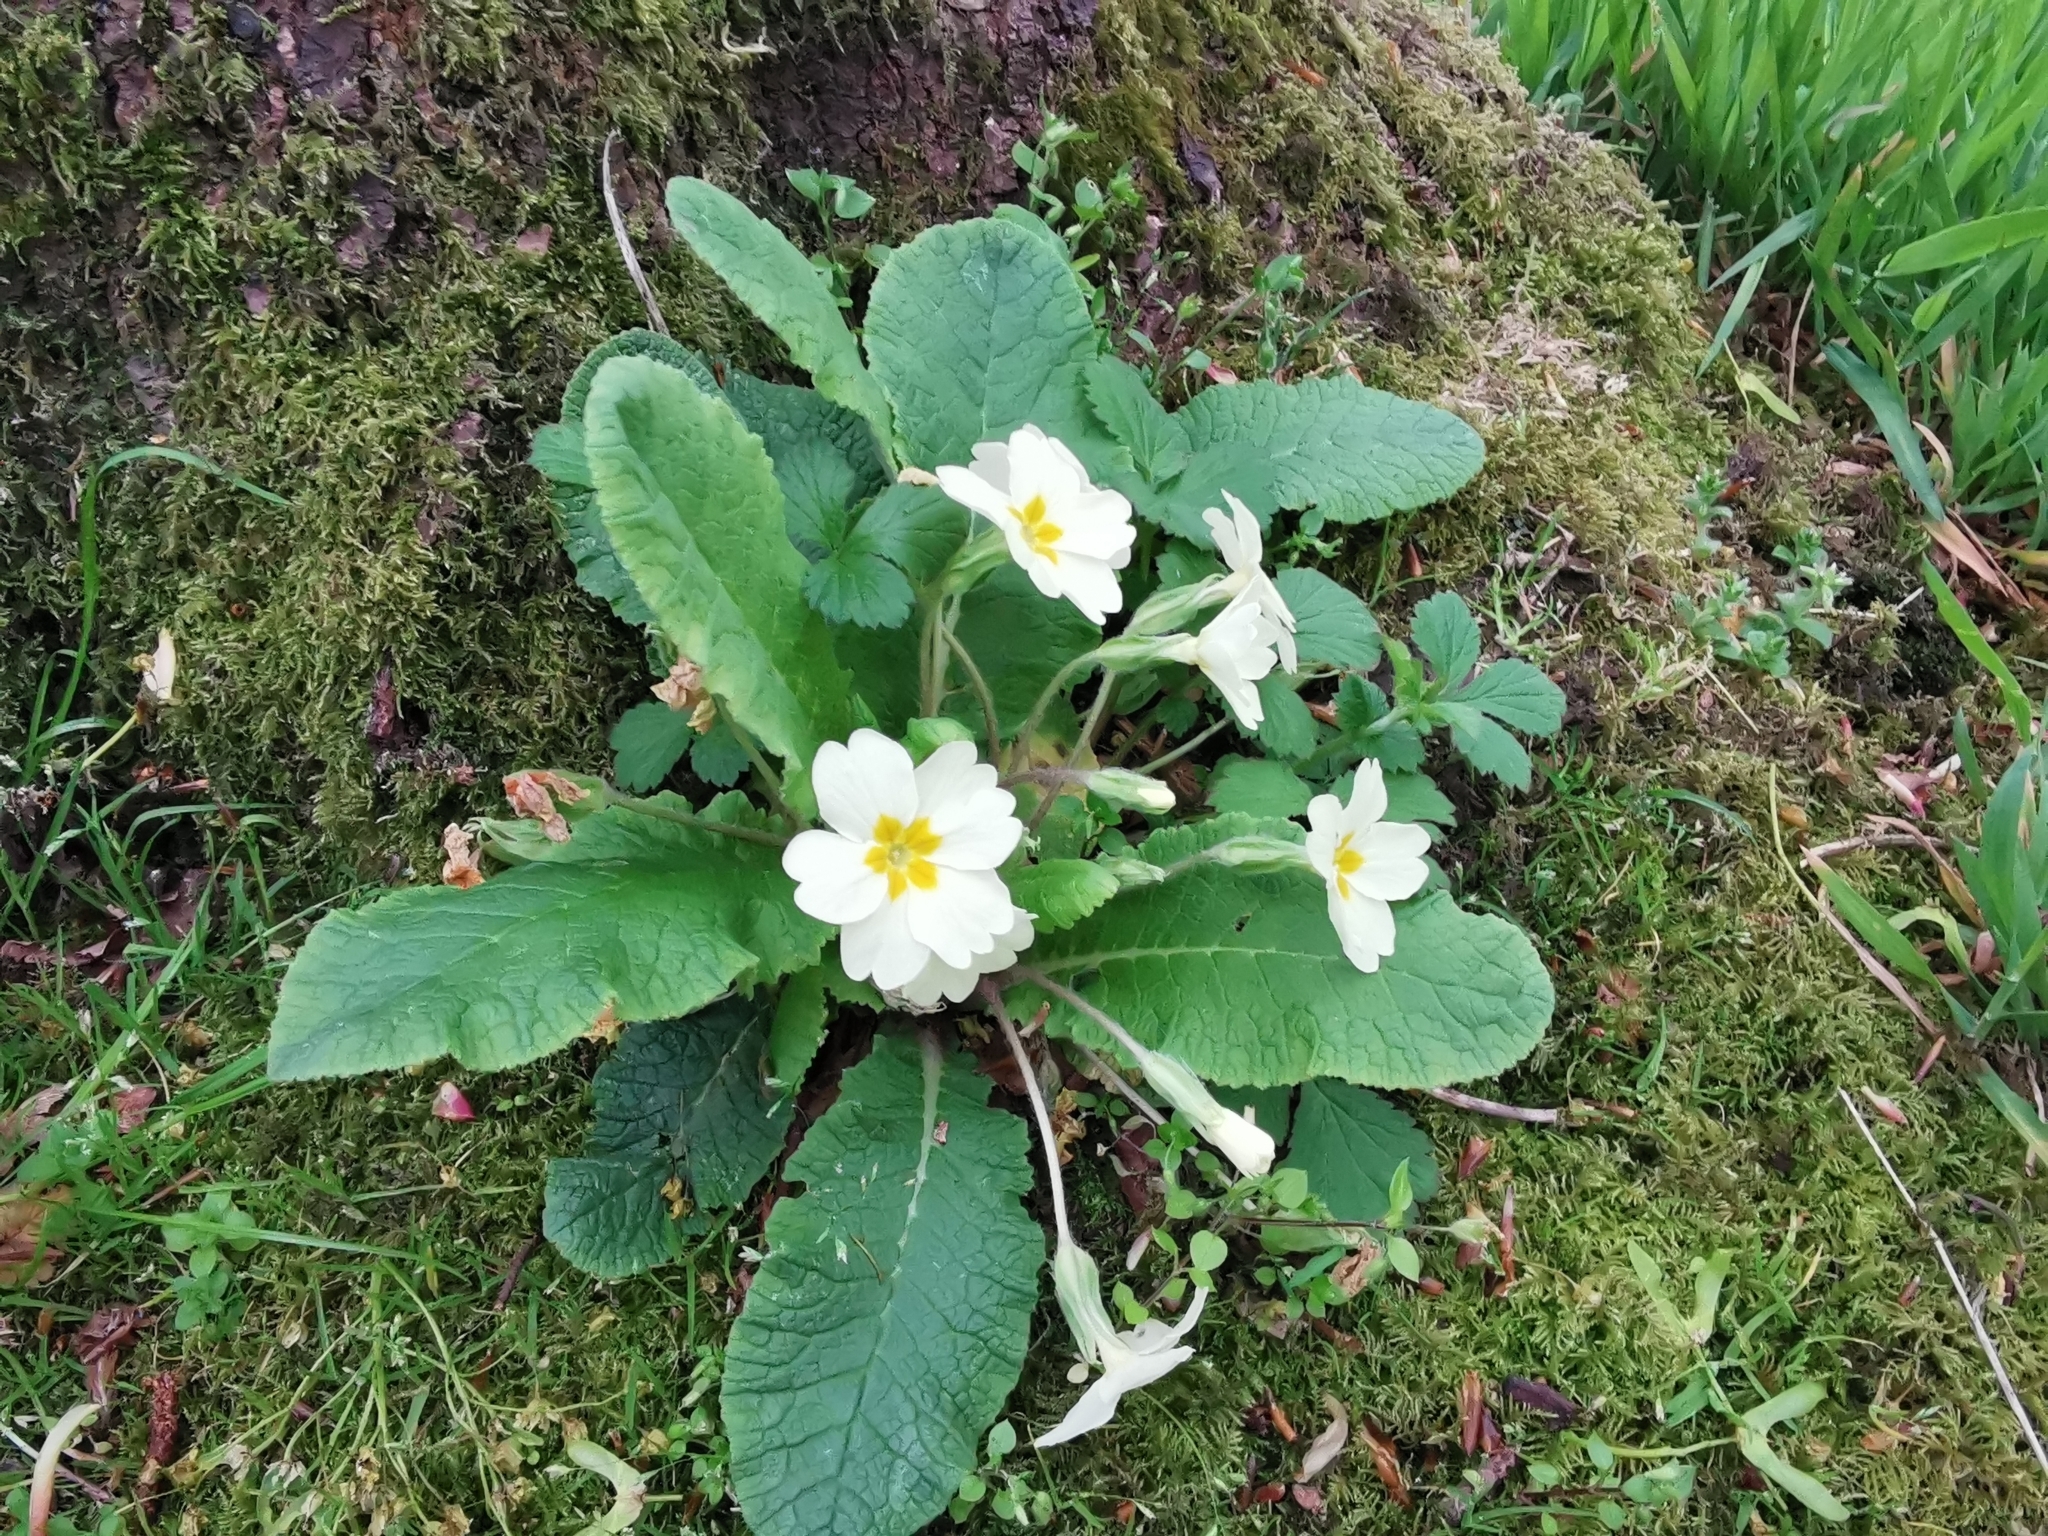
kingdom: Plantae
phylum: Tracheophyta
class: Magnoliopsida
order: Ericales
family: Primulaceae
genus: Primula
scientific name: Primula vulgaris
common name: Primrose
